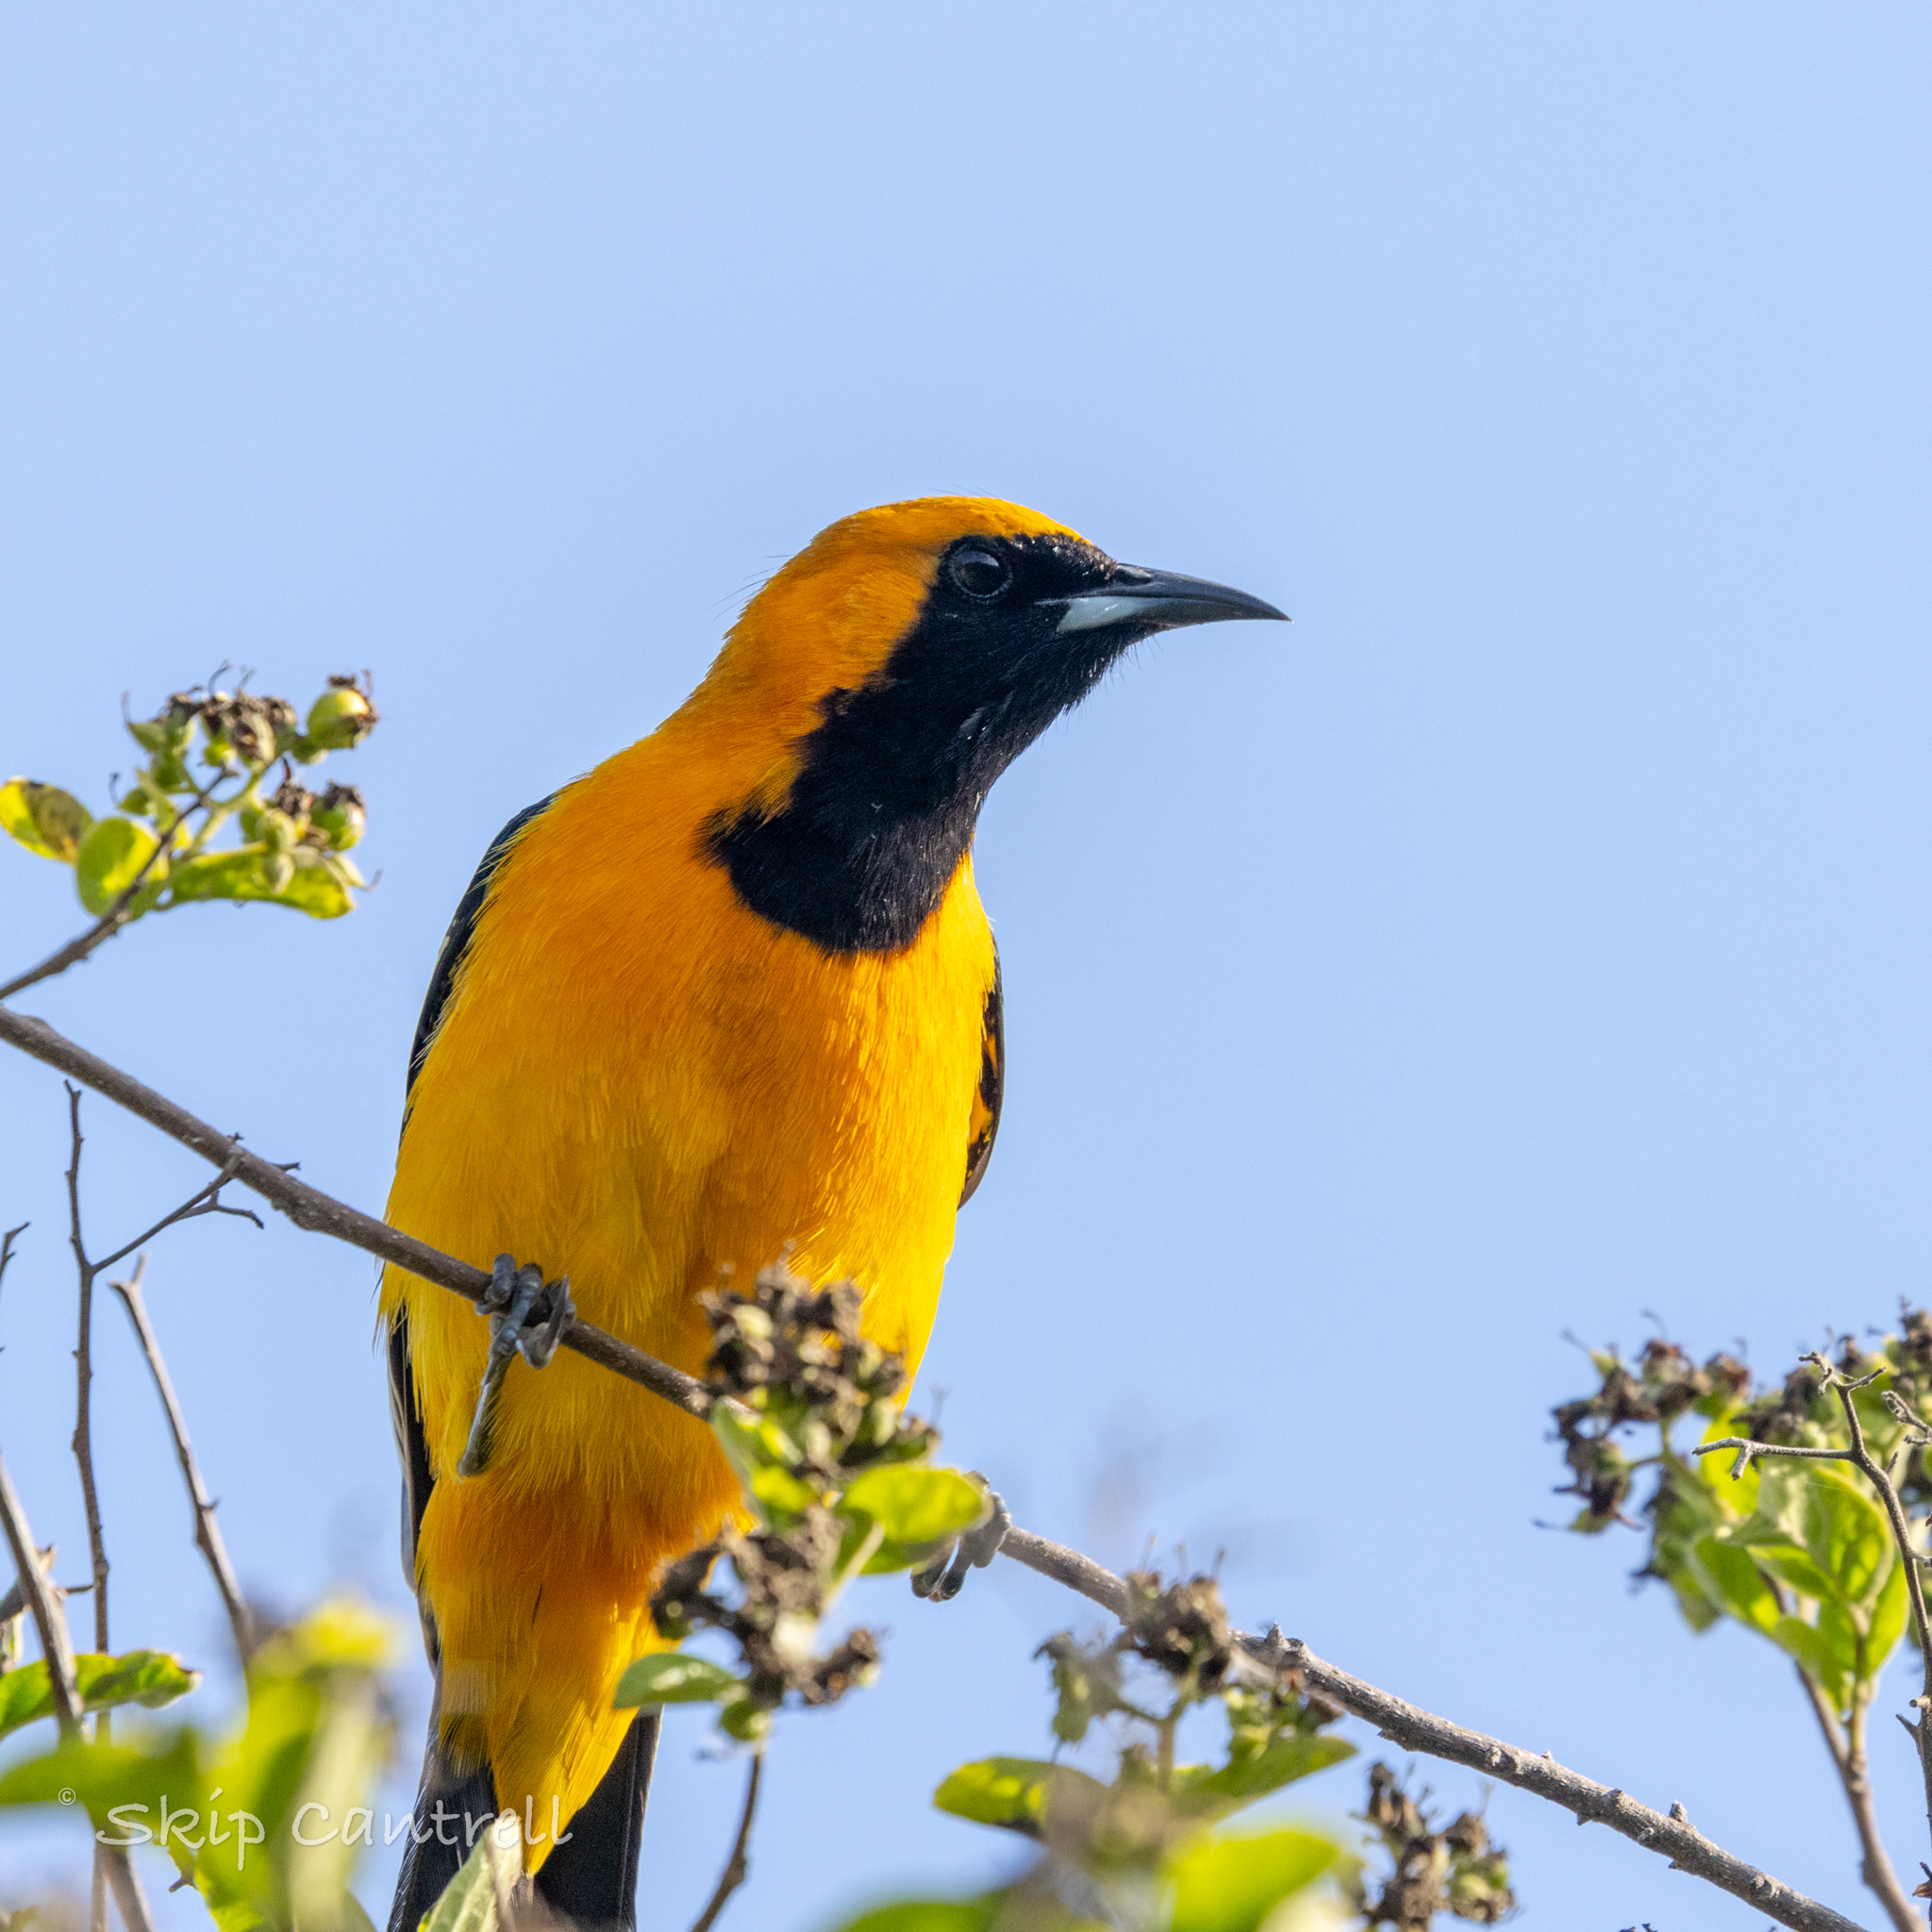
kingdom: Animalia
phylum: Chordata
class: Aves
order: Passeriformes
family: Icteridae
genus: Icterus
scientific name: Icterus cucullatus
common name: Hooded oriole
